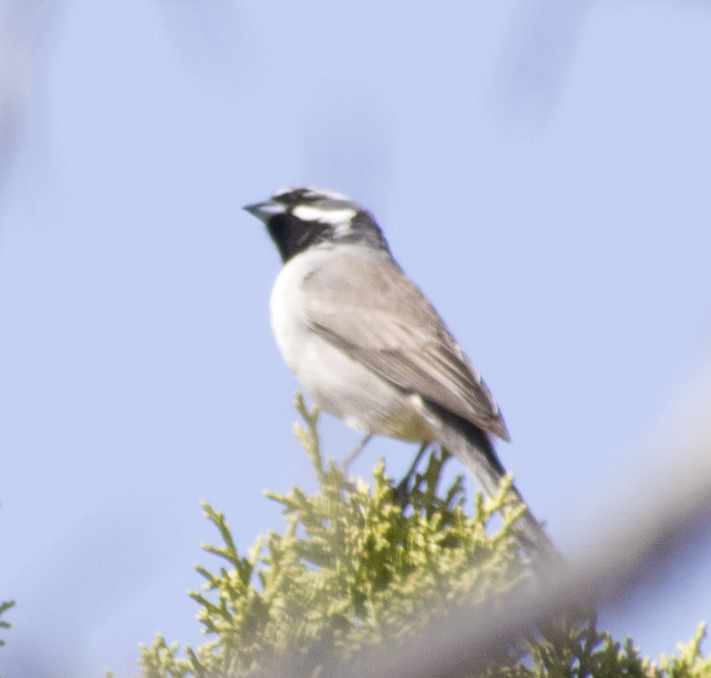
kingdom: Animalia
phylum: Chordata
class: Aves
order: Passeriformes
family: Passerellidae
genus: Amphispiza
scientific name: Amphispiza bilineata
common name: Black-throated sparrow
